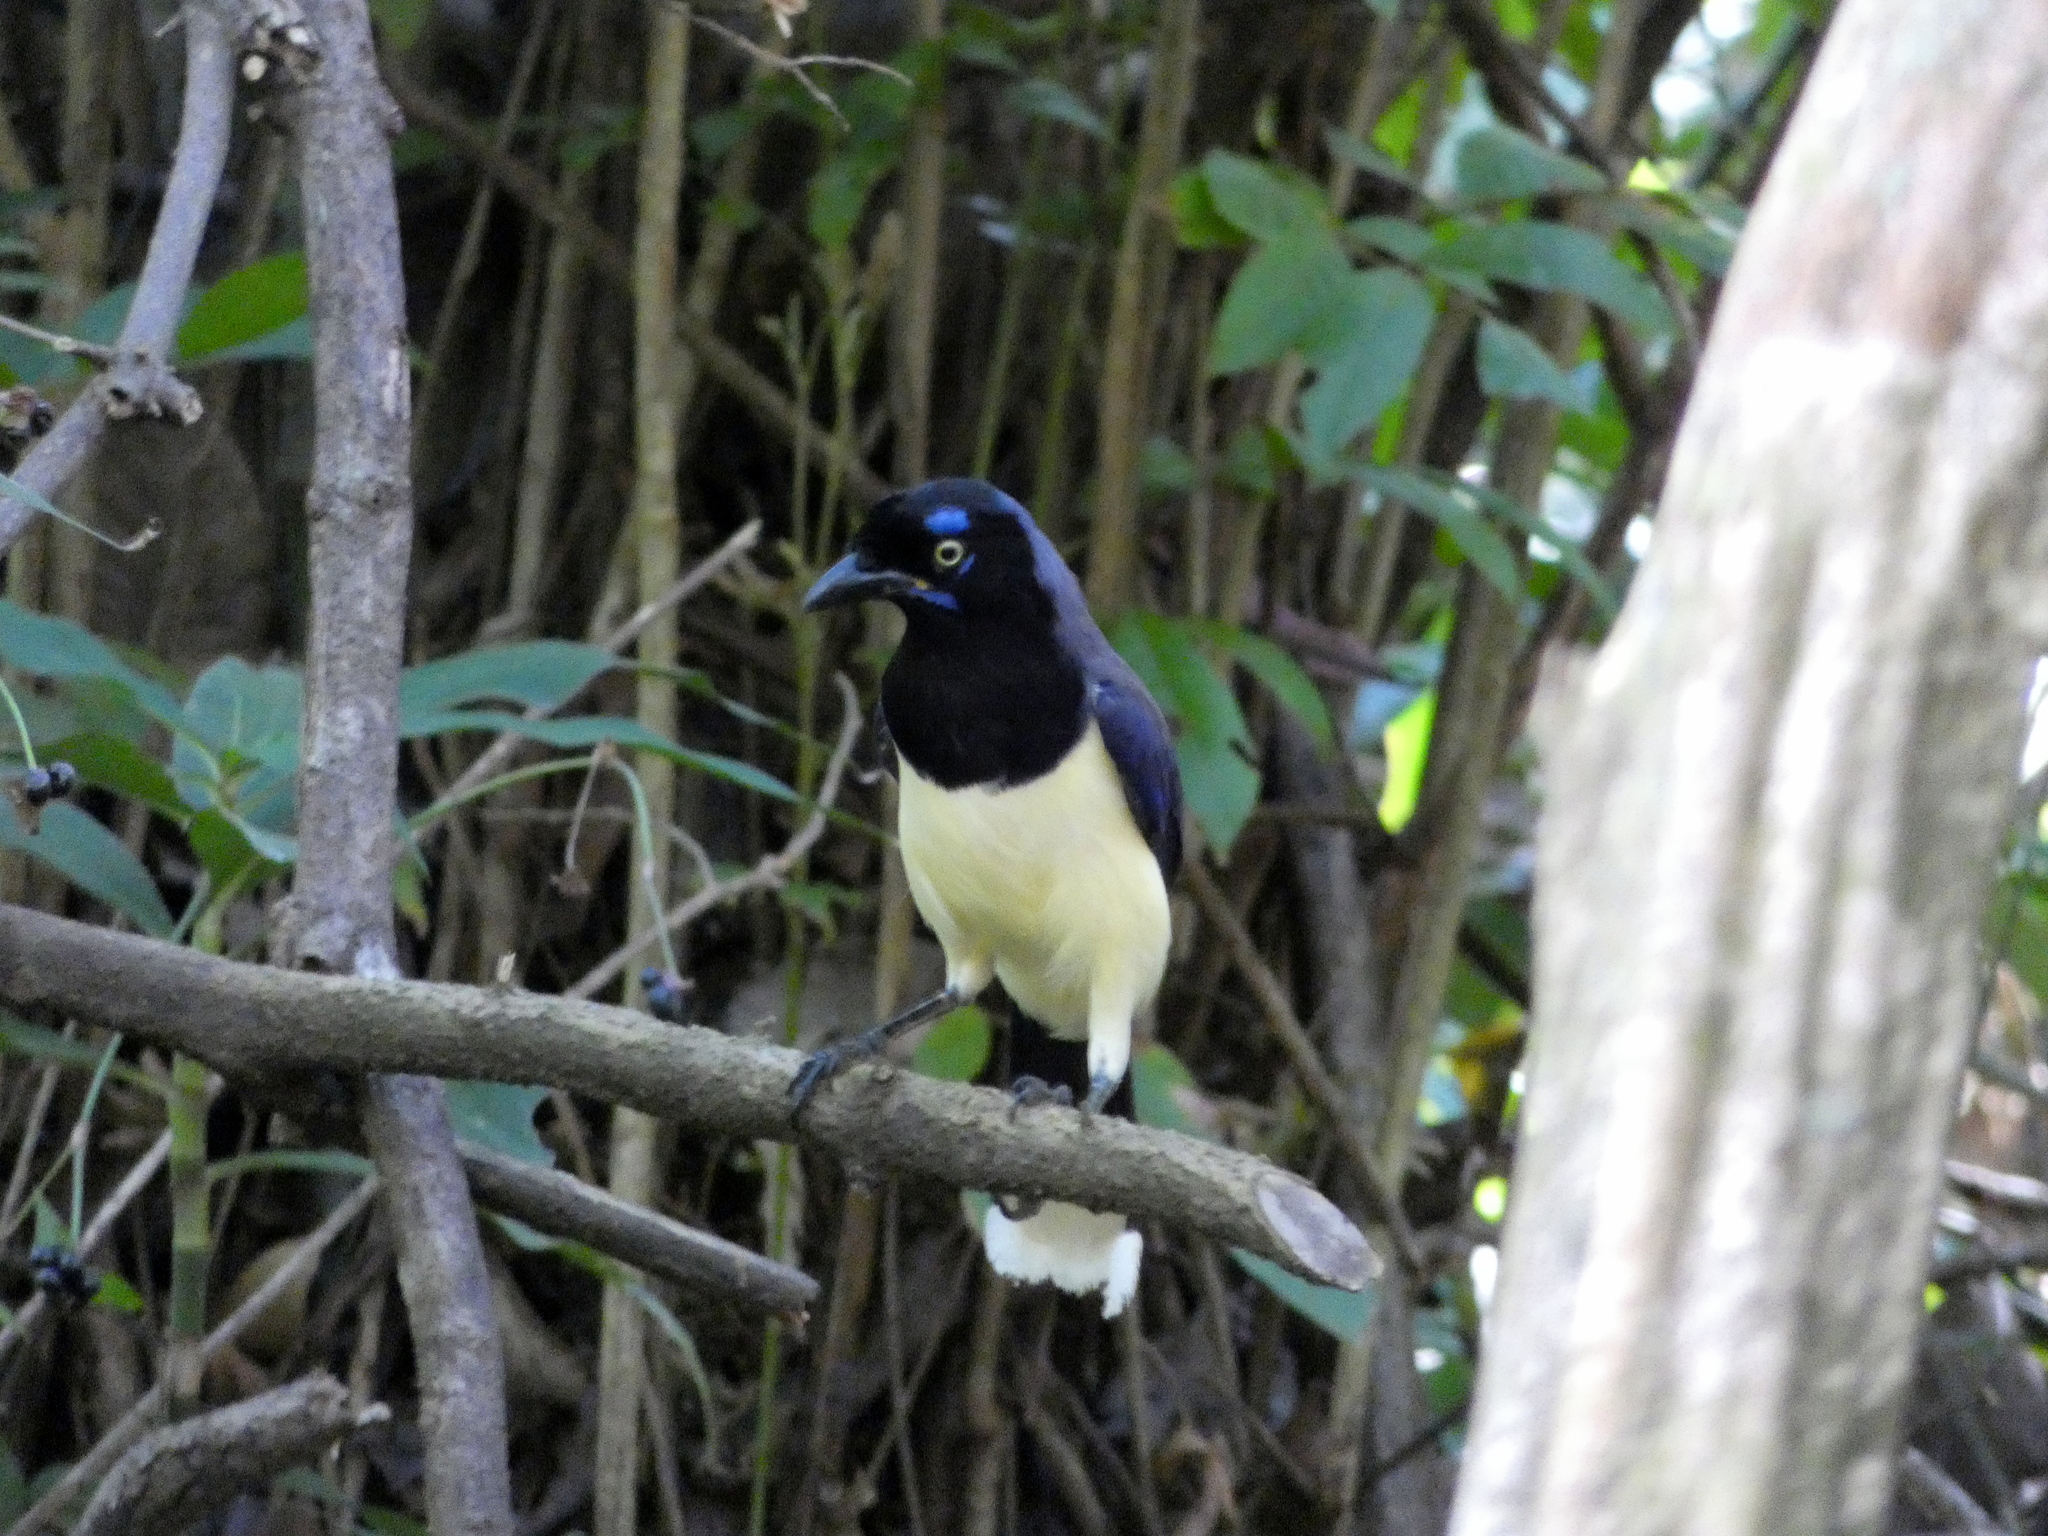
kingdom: Animalia
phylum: Chordata
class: Aves
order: Passeriformes
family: Corvidae
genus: Cyanocorax
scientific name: Cyanocorax affinis
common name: Black-chested jay
